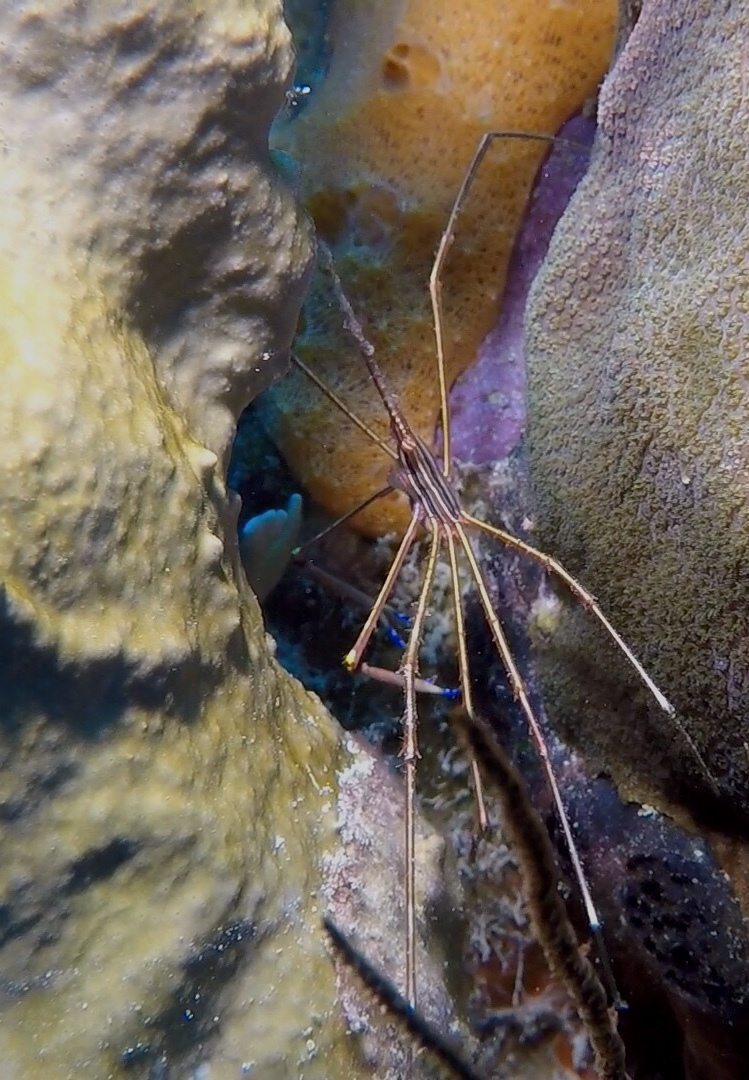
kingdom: Animalia
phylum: Arthropoda
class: Malacostraca
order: Decapoda
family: Inachoididae
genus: Stenorhynchus
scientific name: Stenorhynchus seticornis
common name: Arrow crab
